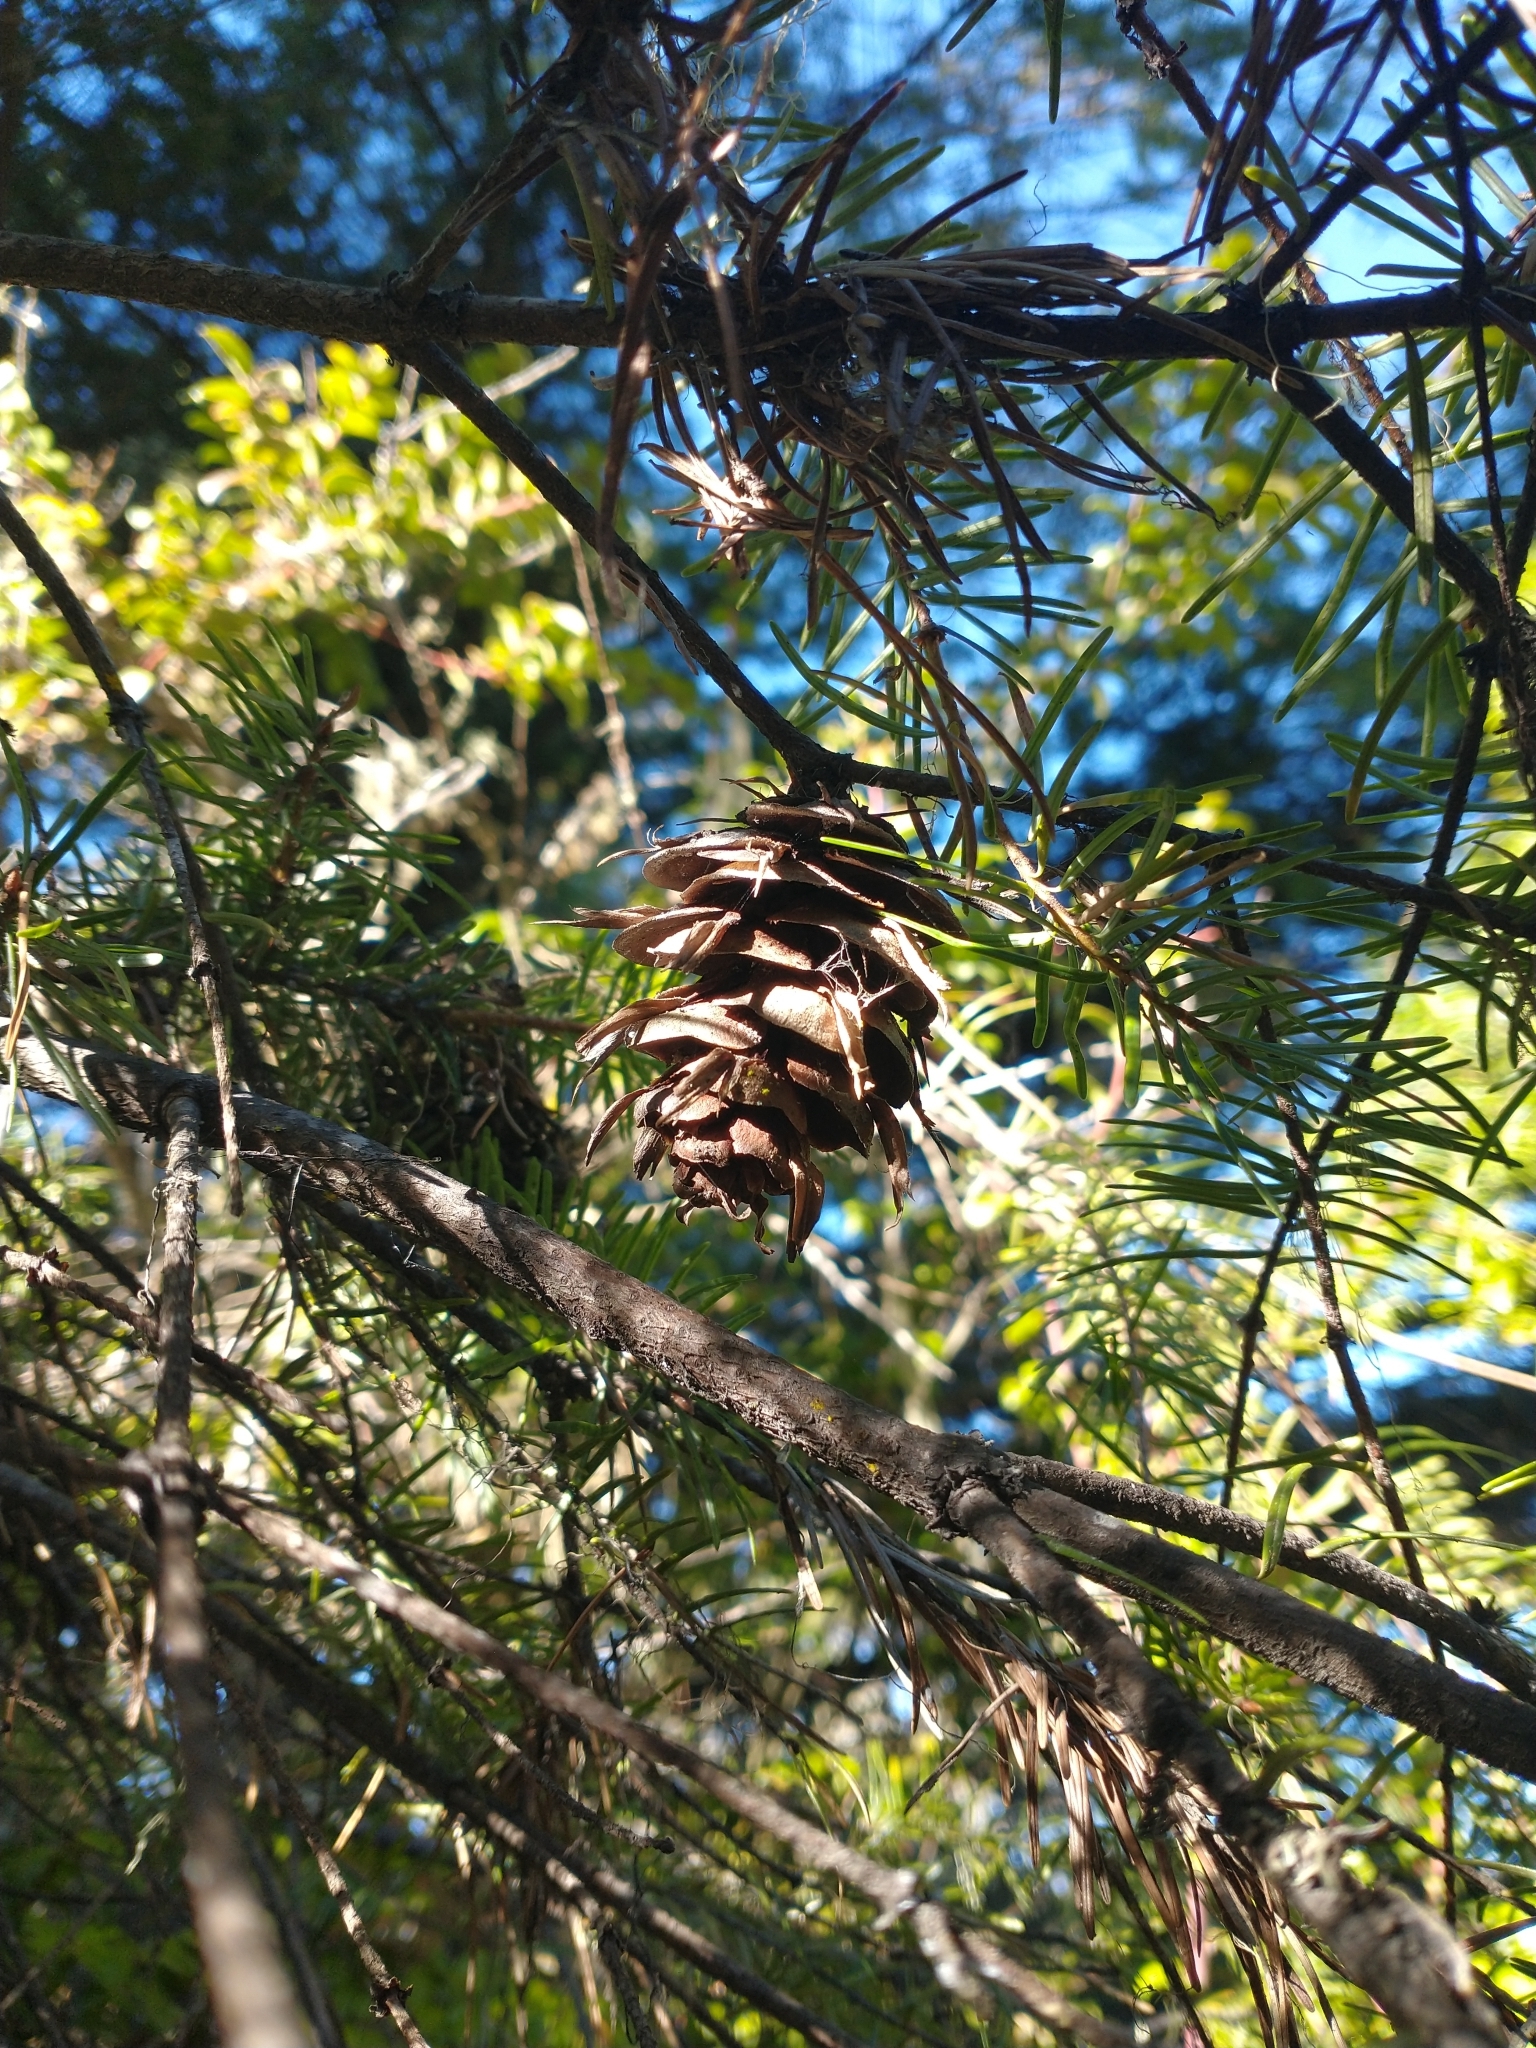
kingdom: Plantae
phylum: Tracheophyta
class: Pinopsida
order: Pinales
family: Pinaceae
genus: Pseudotsuga
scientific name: Pseudotsuga menziesii
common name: Douglas fir
